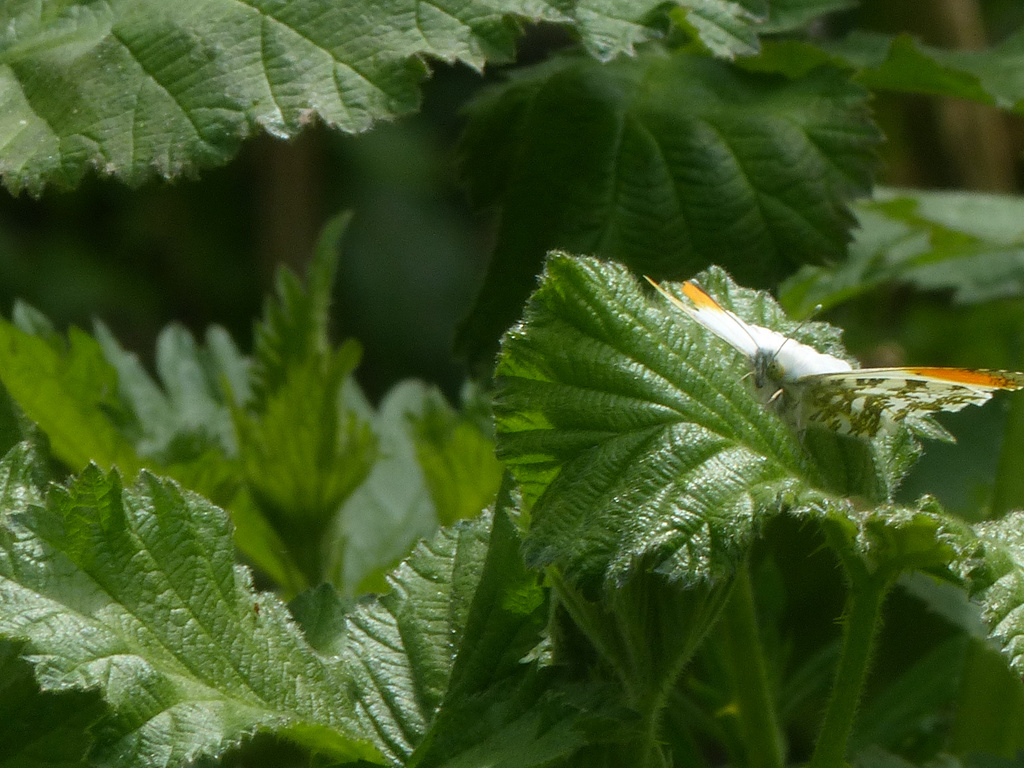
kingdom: Animalia
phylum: Arthropoda
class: Insecta
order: Lepidoptera
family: Pieridae
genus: Anthocharis
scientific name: Anthocharis cardamines
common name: Orange-tip
